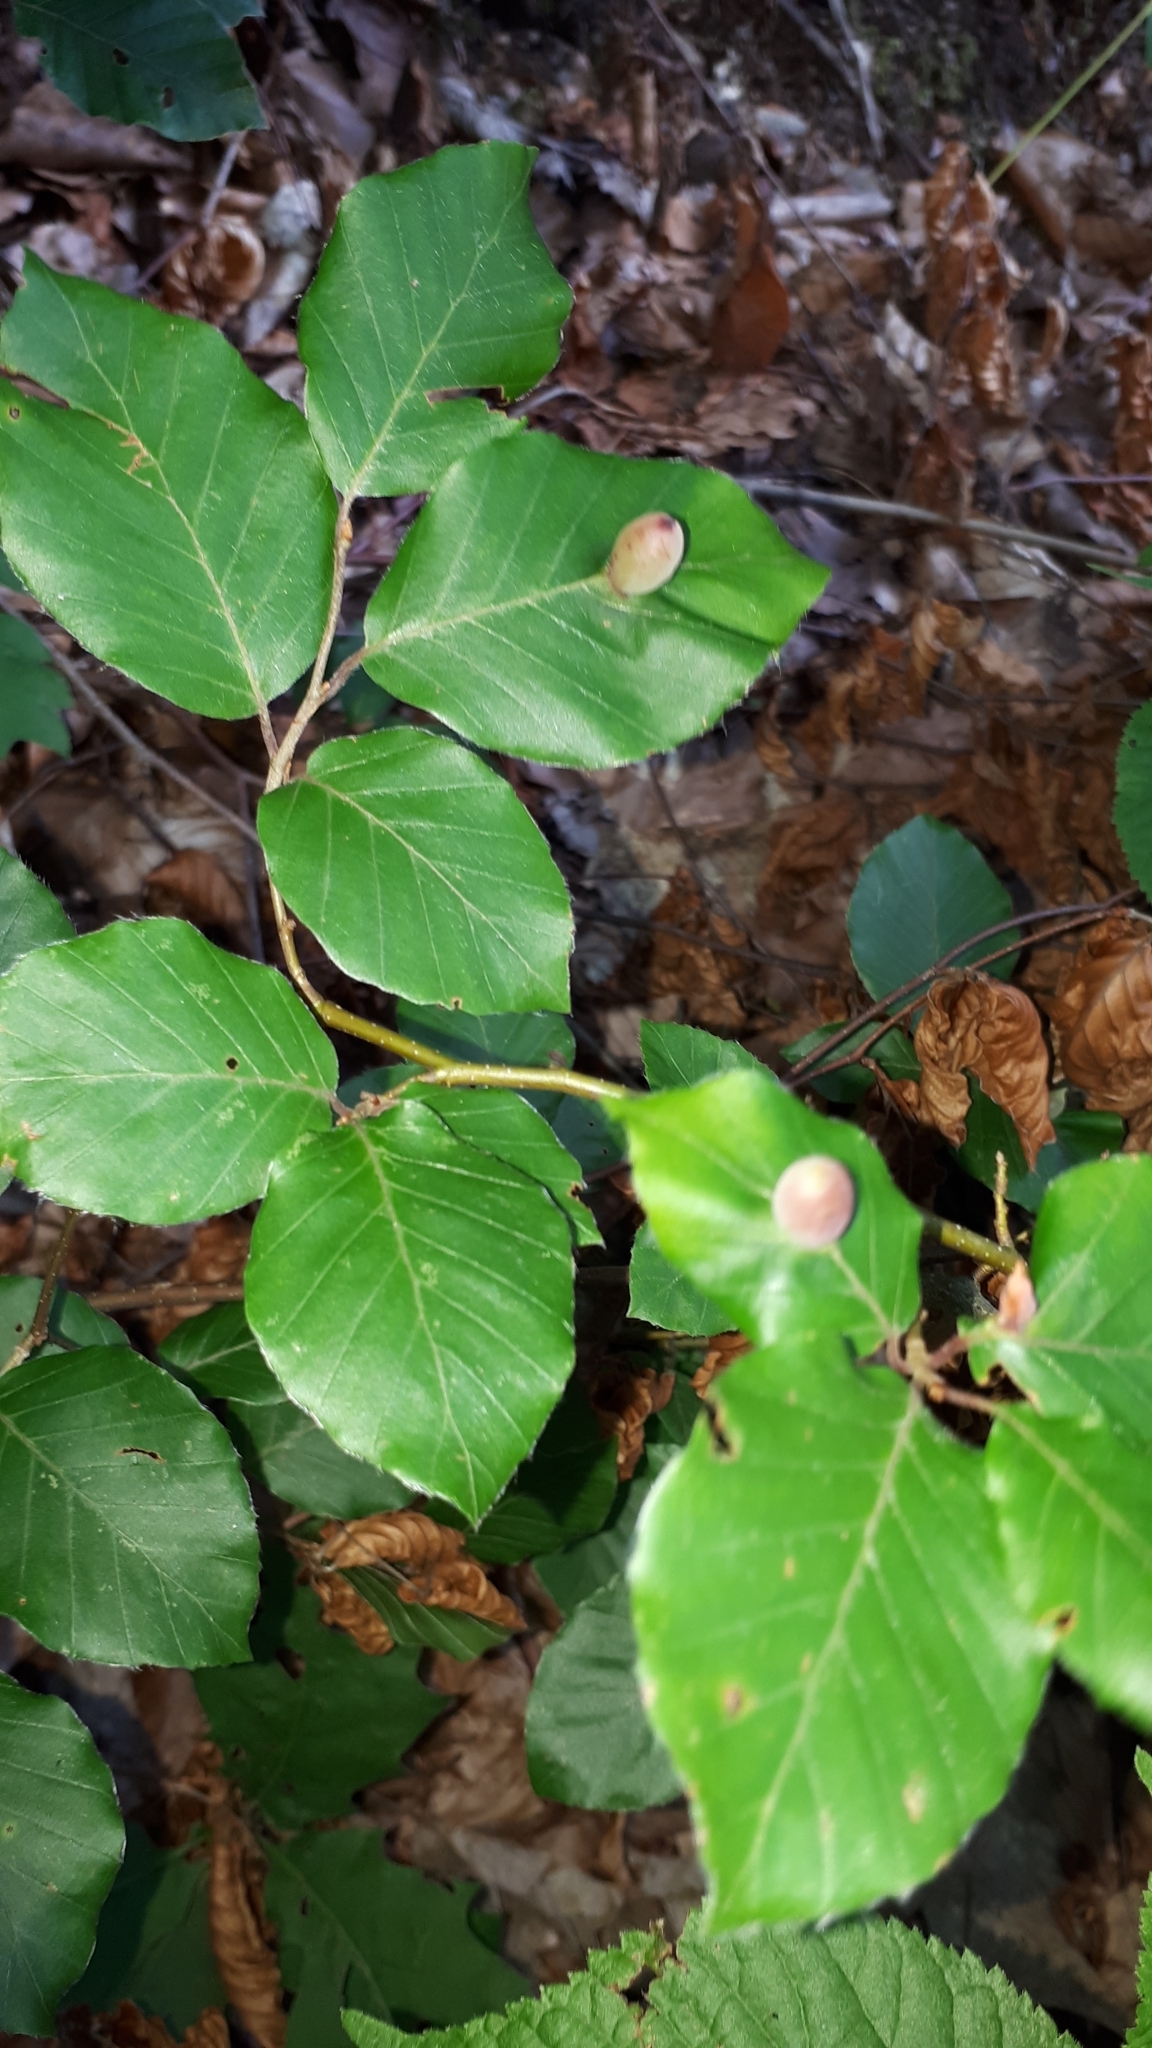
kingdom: Animalia
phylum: Arthropoda
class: Insecta
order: Diptera
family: Cecidomyiidae
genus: Mikiola
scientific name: Mikiola fagi
